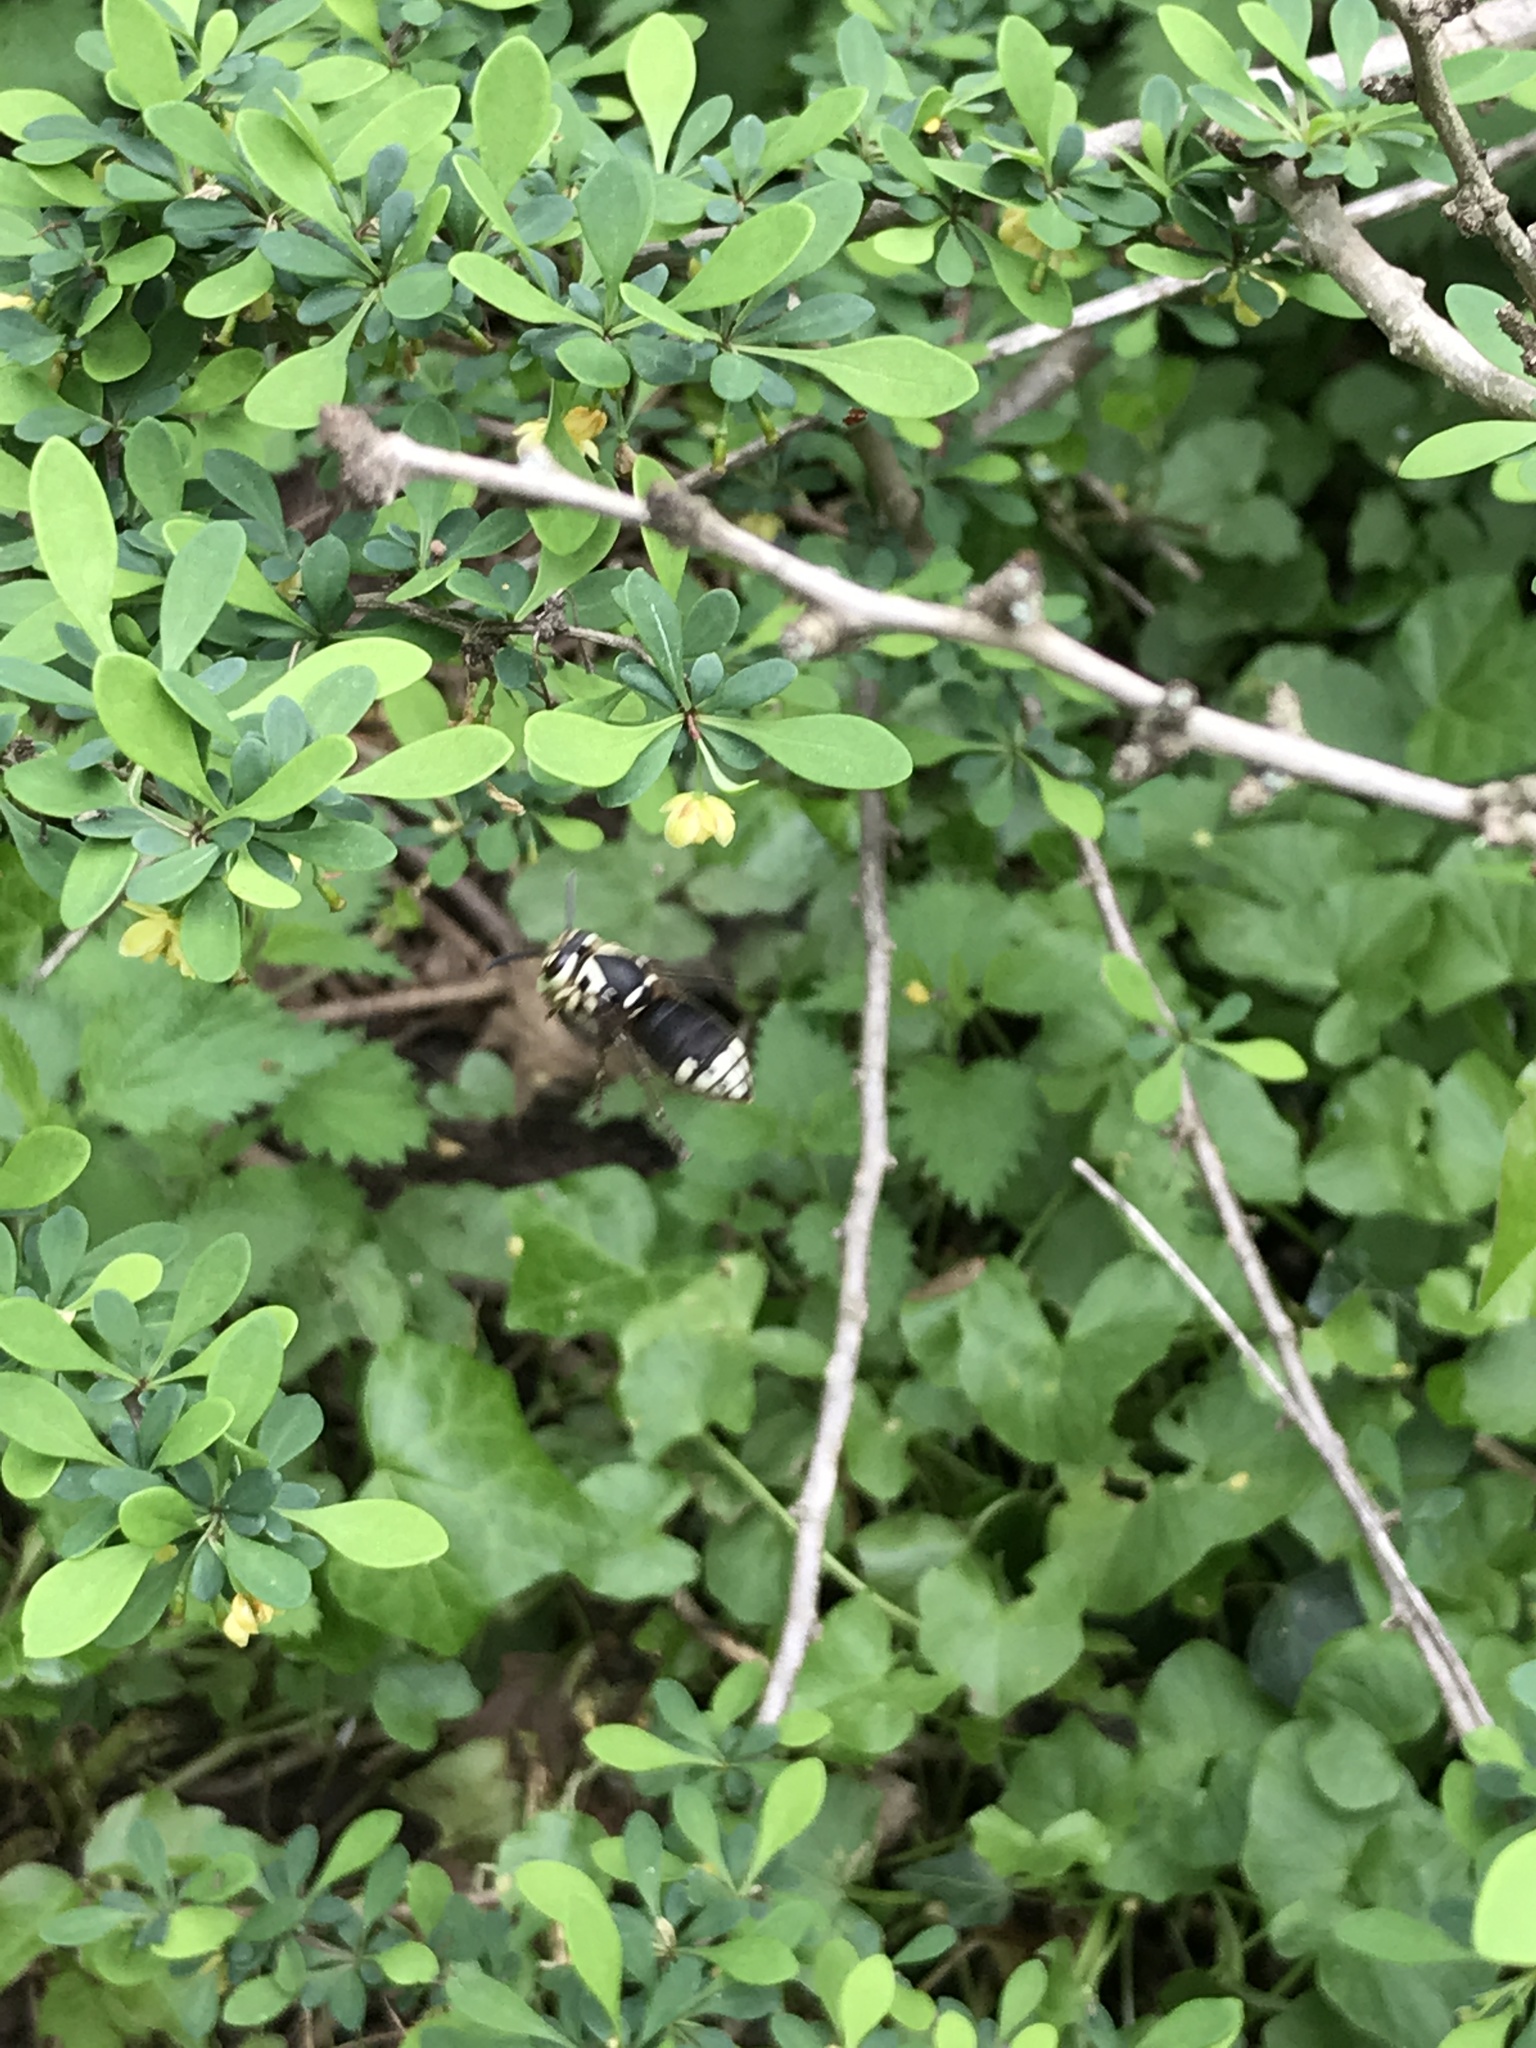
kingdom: Animalia
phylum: Arthropoda
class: Insecta
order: Hymenoptera
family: Vespidae
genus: Dolichovespula
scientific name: Dolichovespula maculata
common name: Bald-faced hornet
